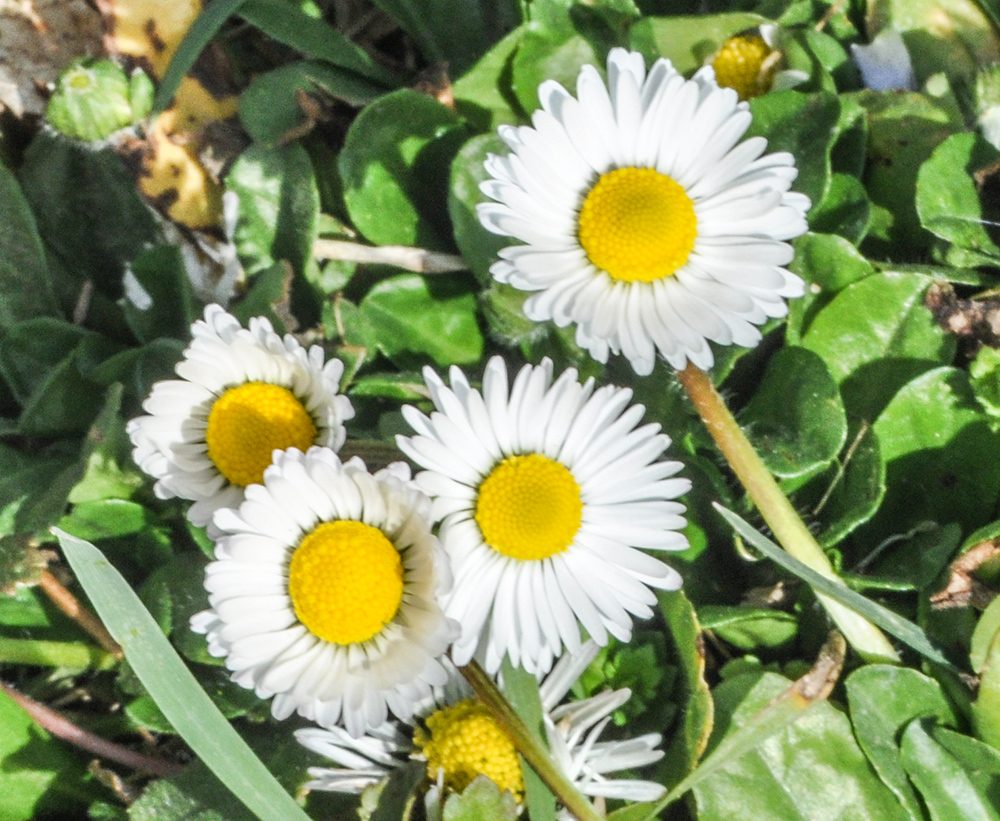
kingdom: Plantae
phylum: Tracheophyta
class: Magnoliopsida
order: Asterales
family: Asteraceae
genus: Bellis
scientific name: Bellis perennis
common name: Lawndaisy
